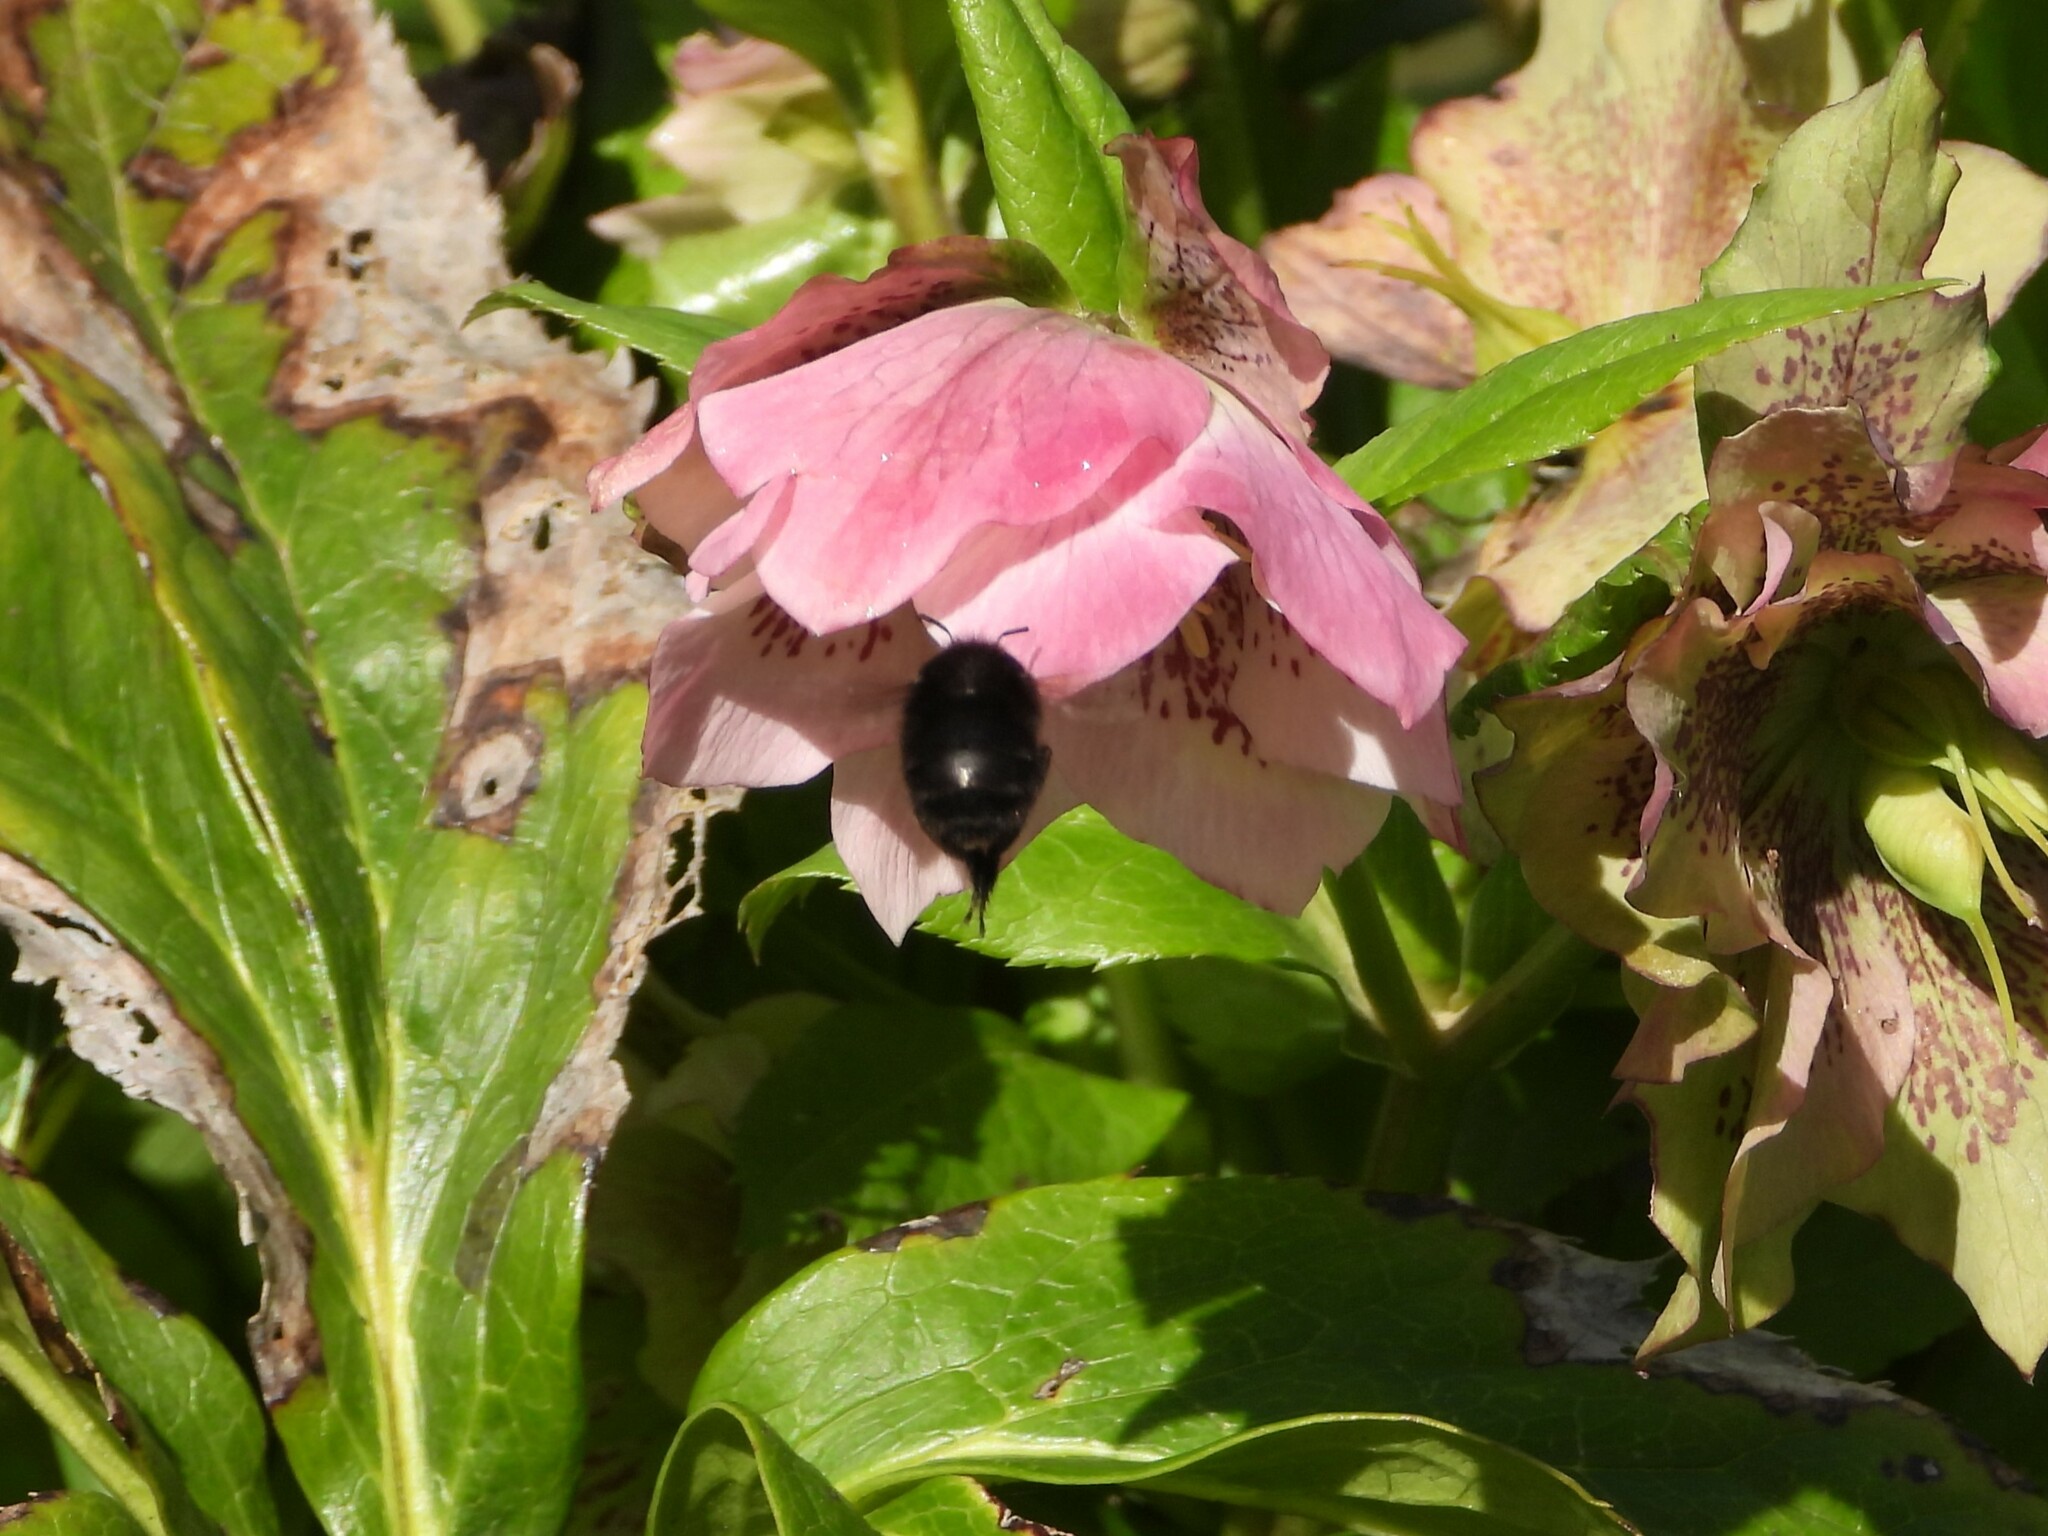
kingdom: Animalia
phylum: Arthropoda
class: Insecta
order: Hymenoptera
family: Apidae
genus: Anthophora
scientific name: Anthophora plumipes
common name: Hairy-footed flower bee
